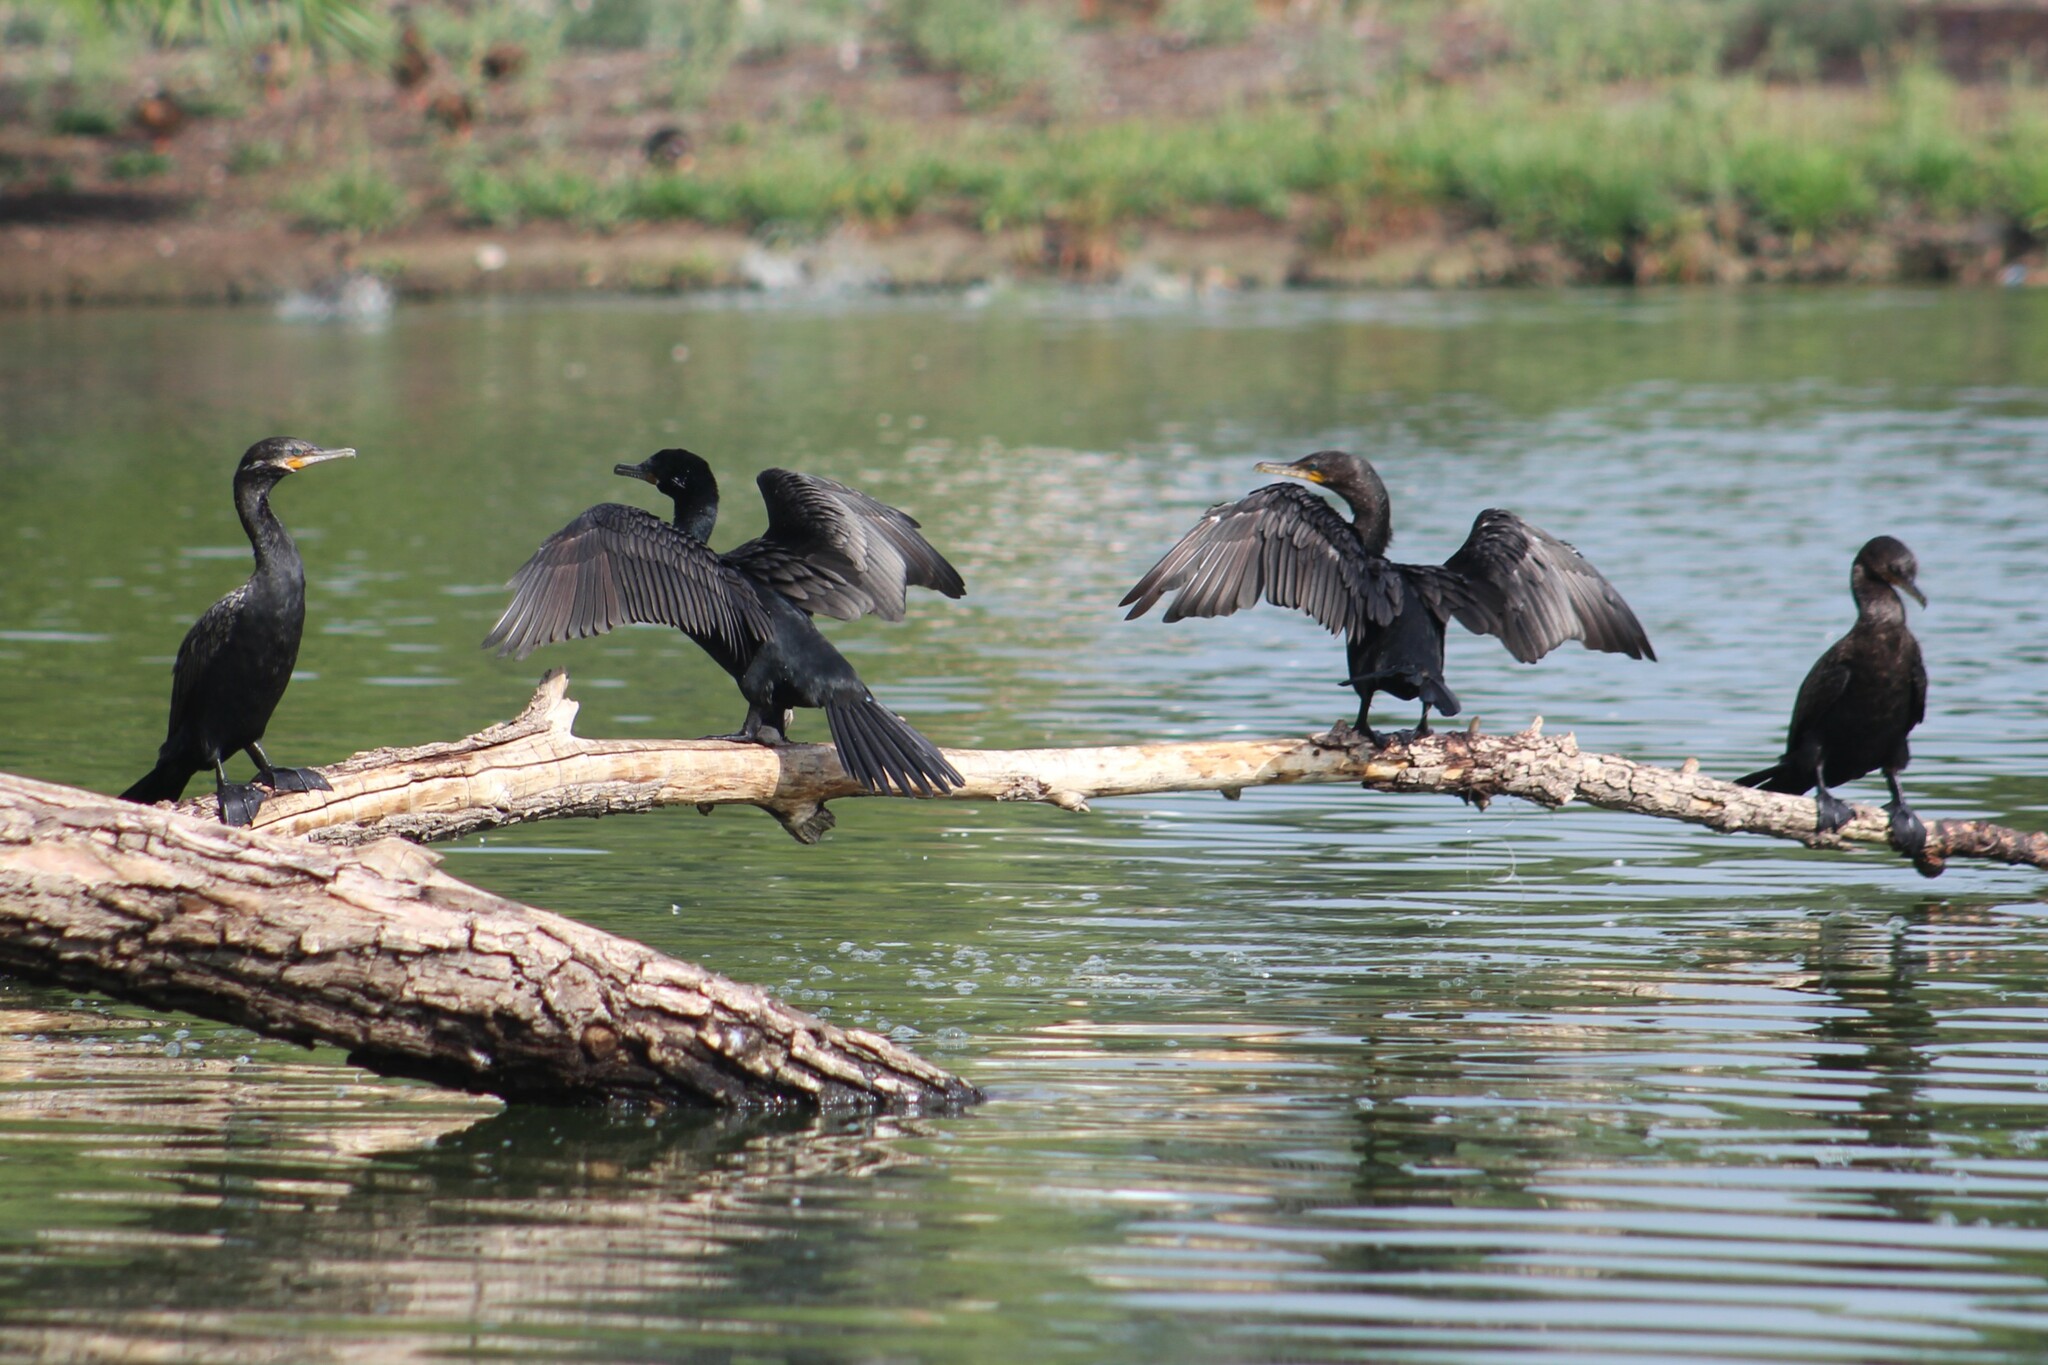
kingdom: Animalia
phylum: Chordata
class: Aves
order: Suliformes
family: Phalacrocoracidae
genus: Phalacrocorax
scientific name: Phalacrocorax brasilianus
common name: Neotropic cormorant
